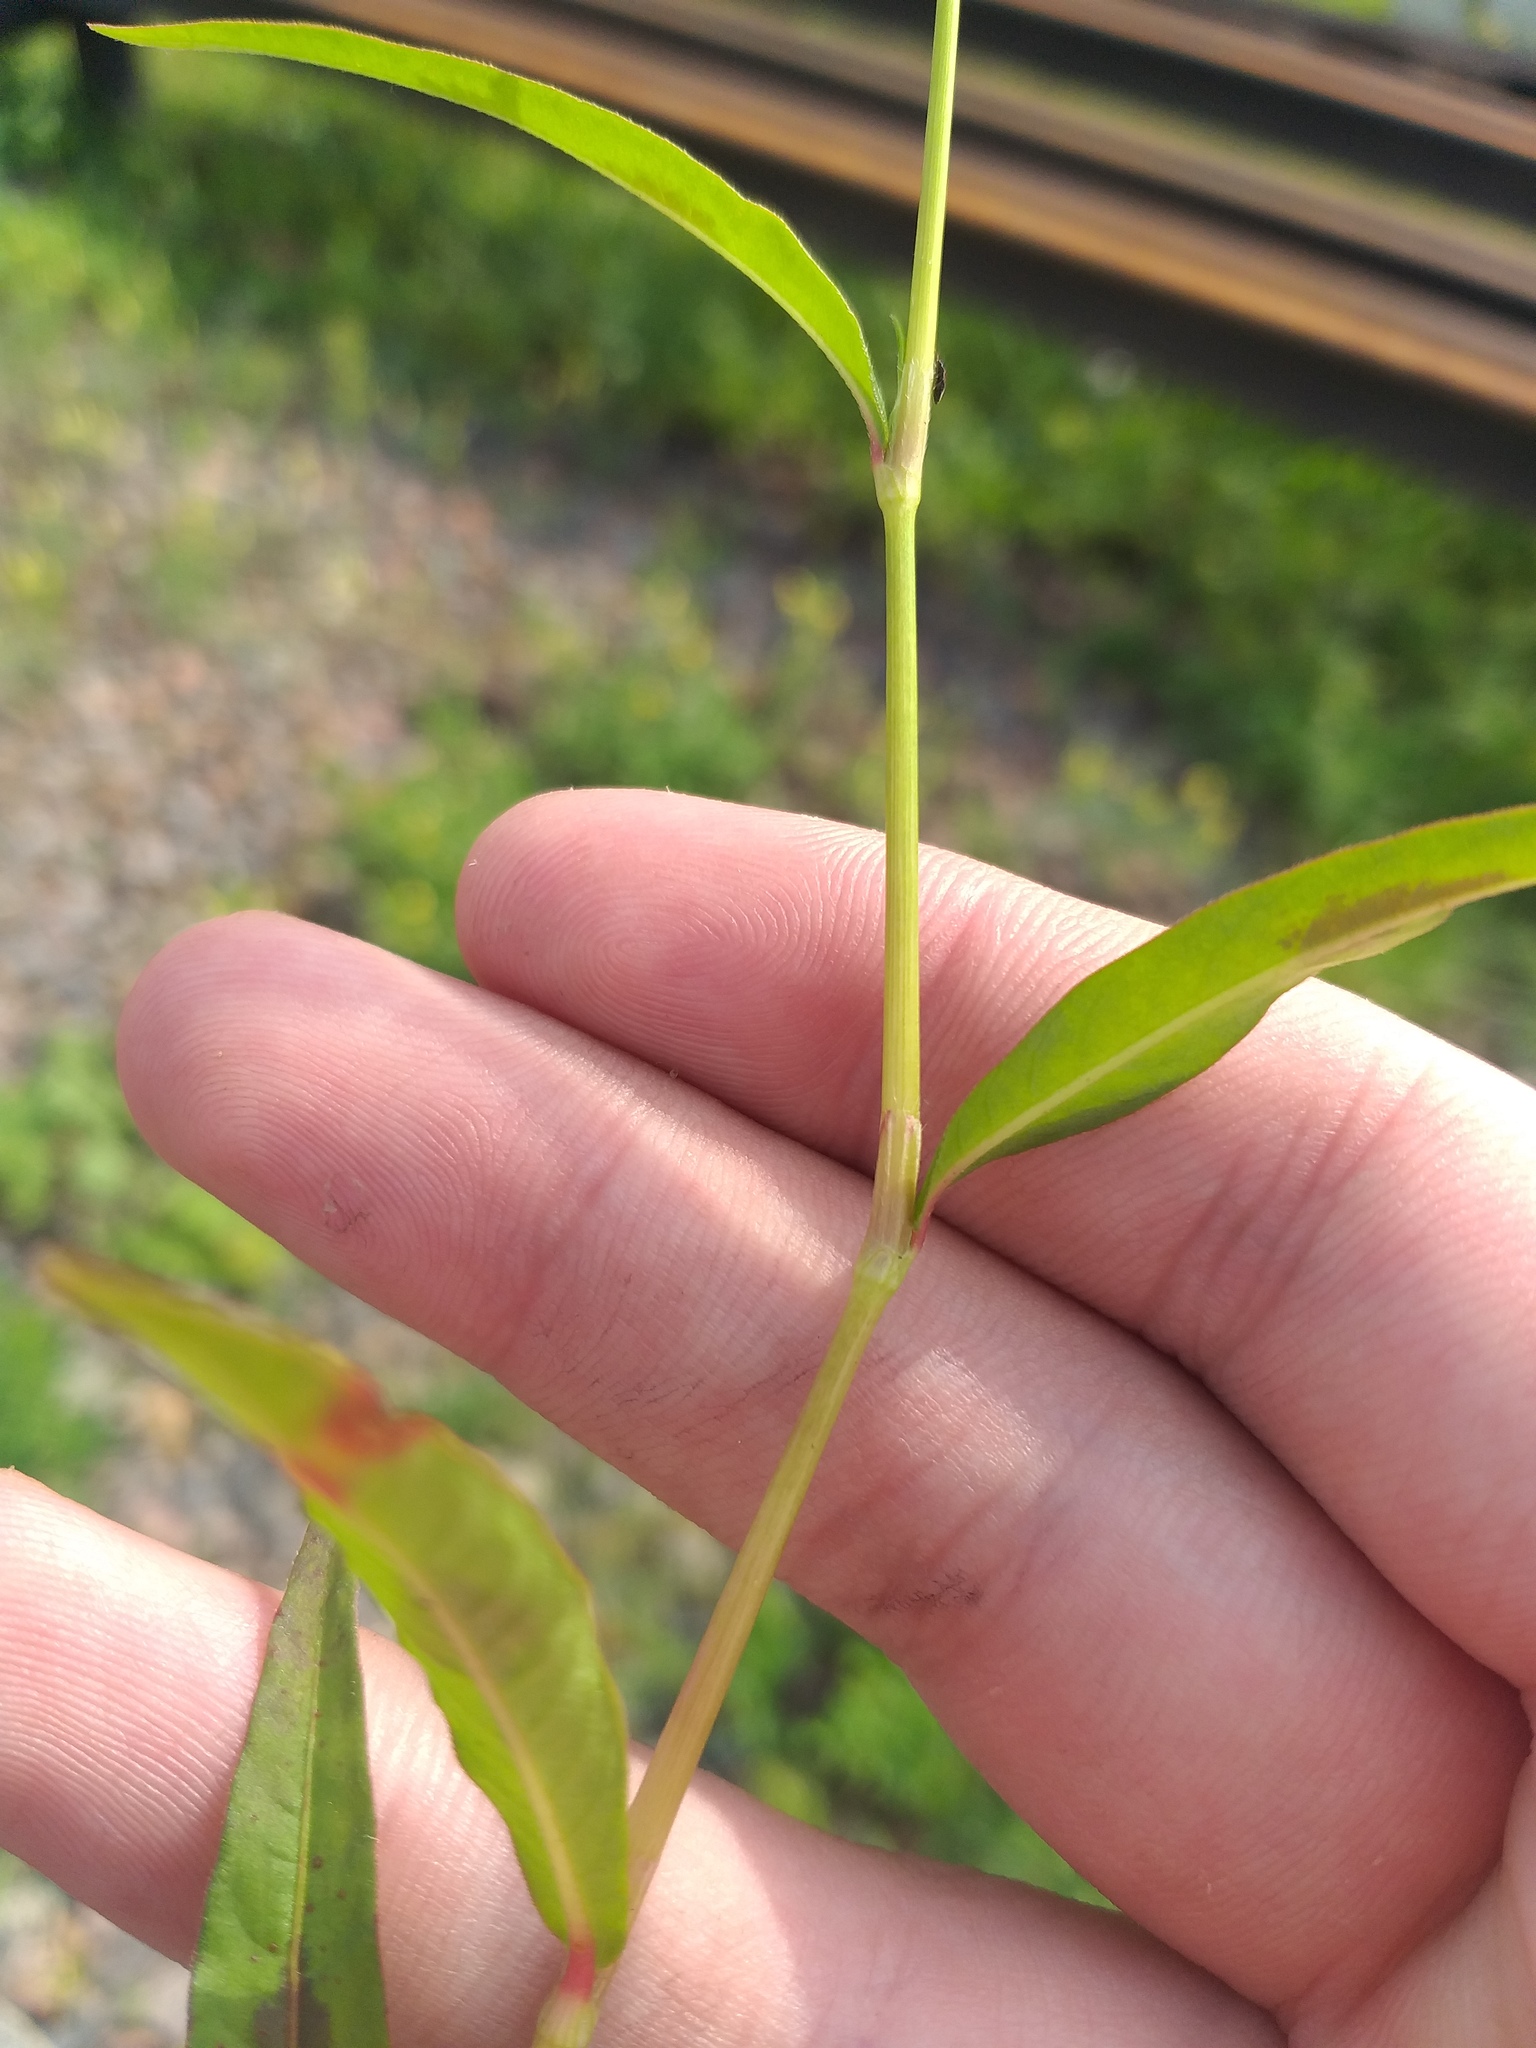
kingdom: Plantae
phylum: Tracheophyta
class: Magnoliopsida
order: Caryophyllales
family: Polygonaceae
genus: Persicaria
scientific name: Persicaria maculosa
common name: Redshank
